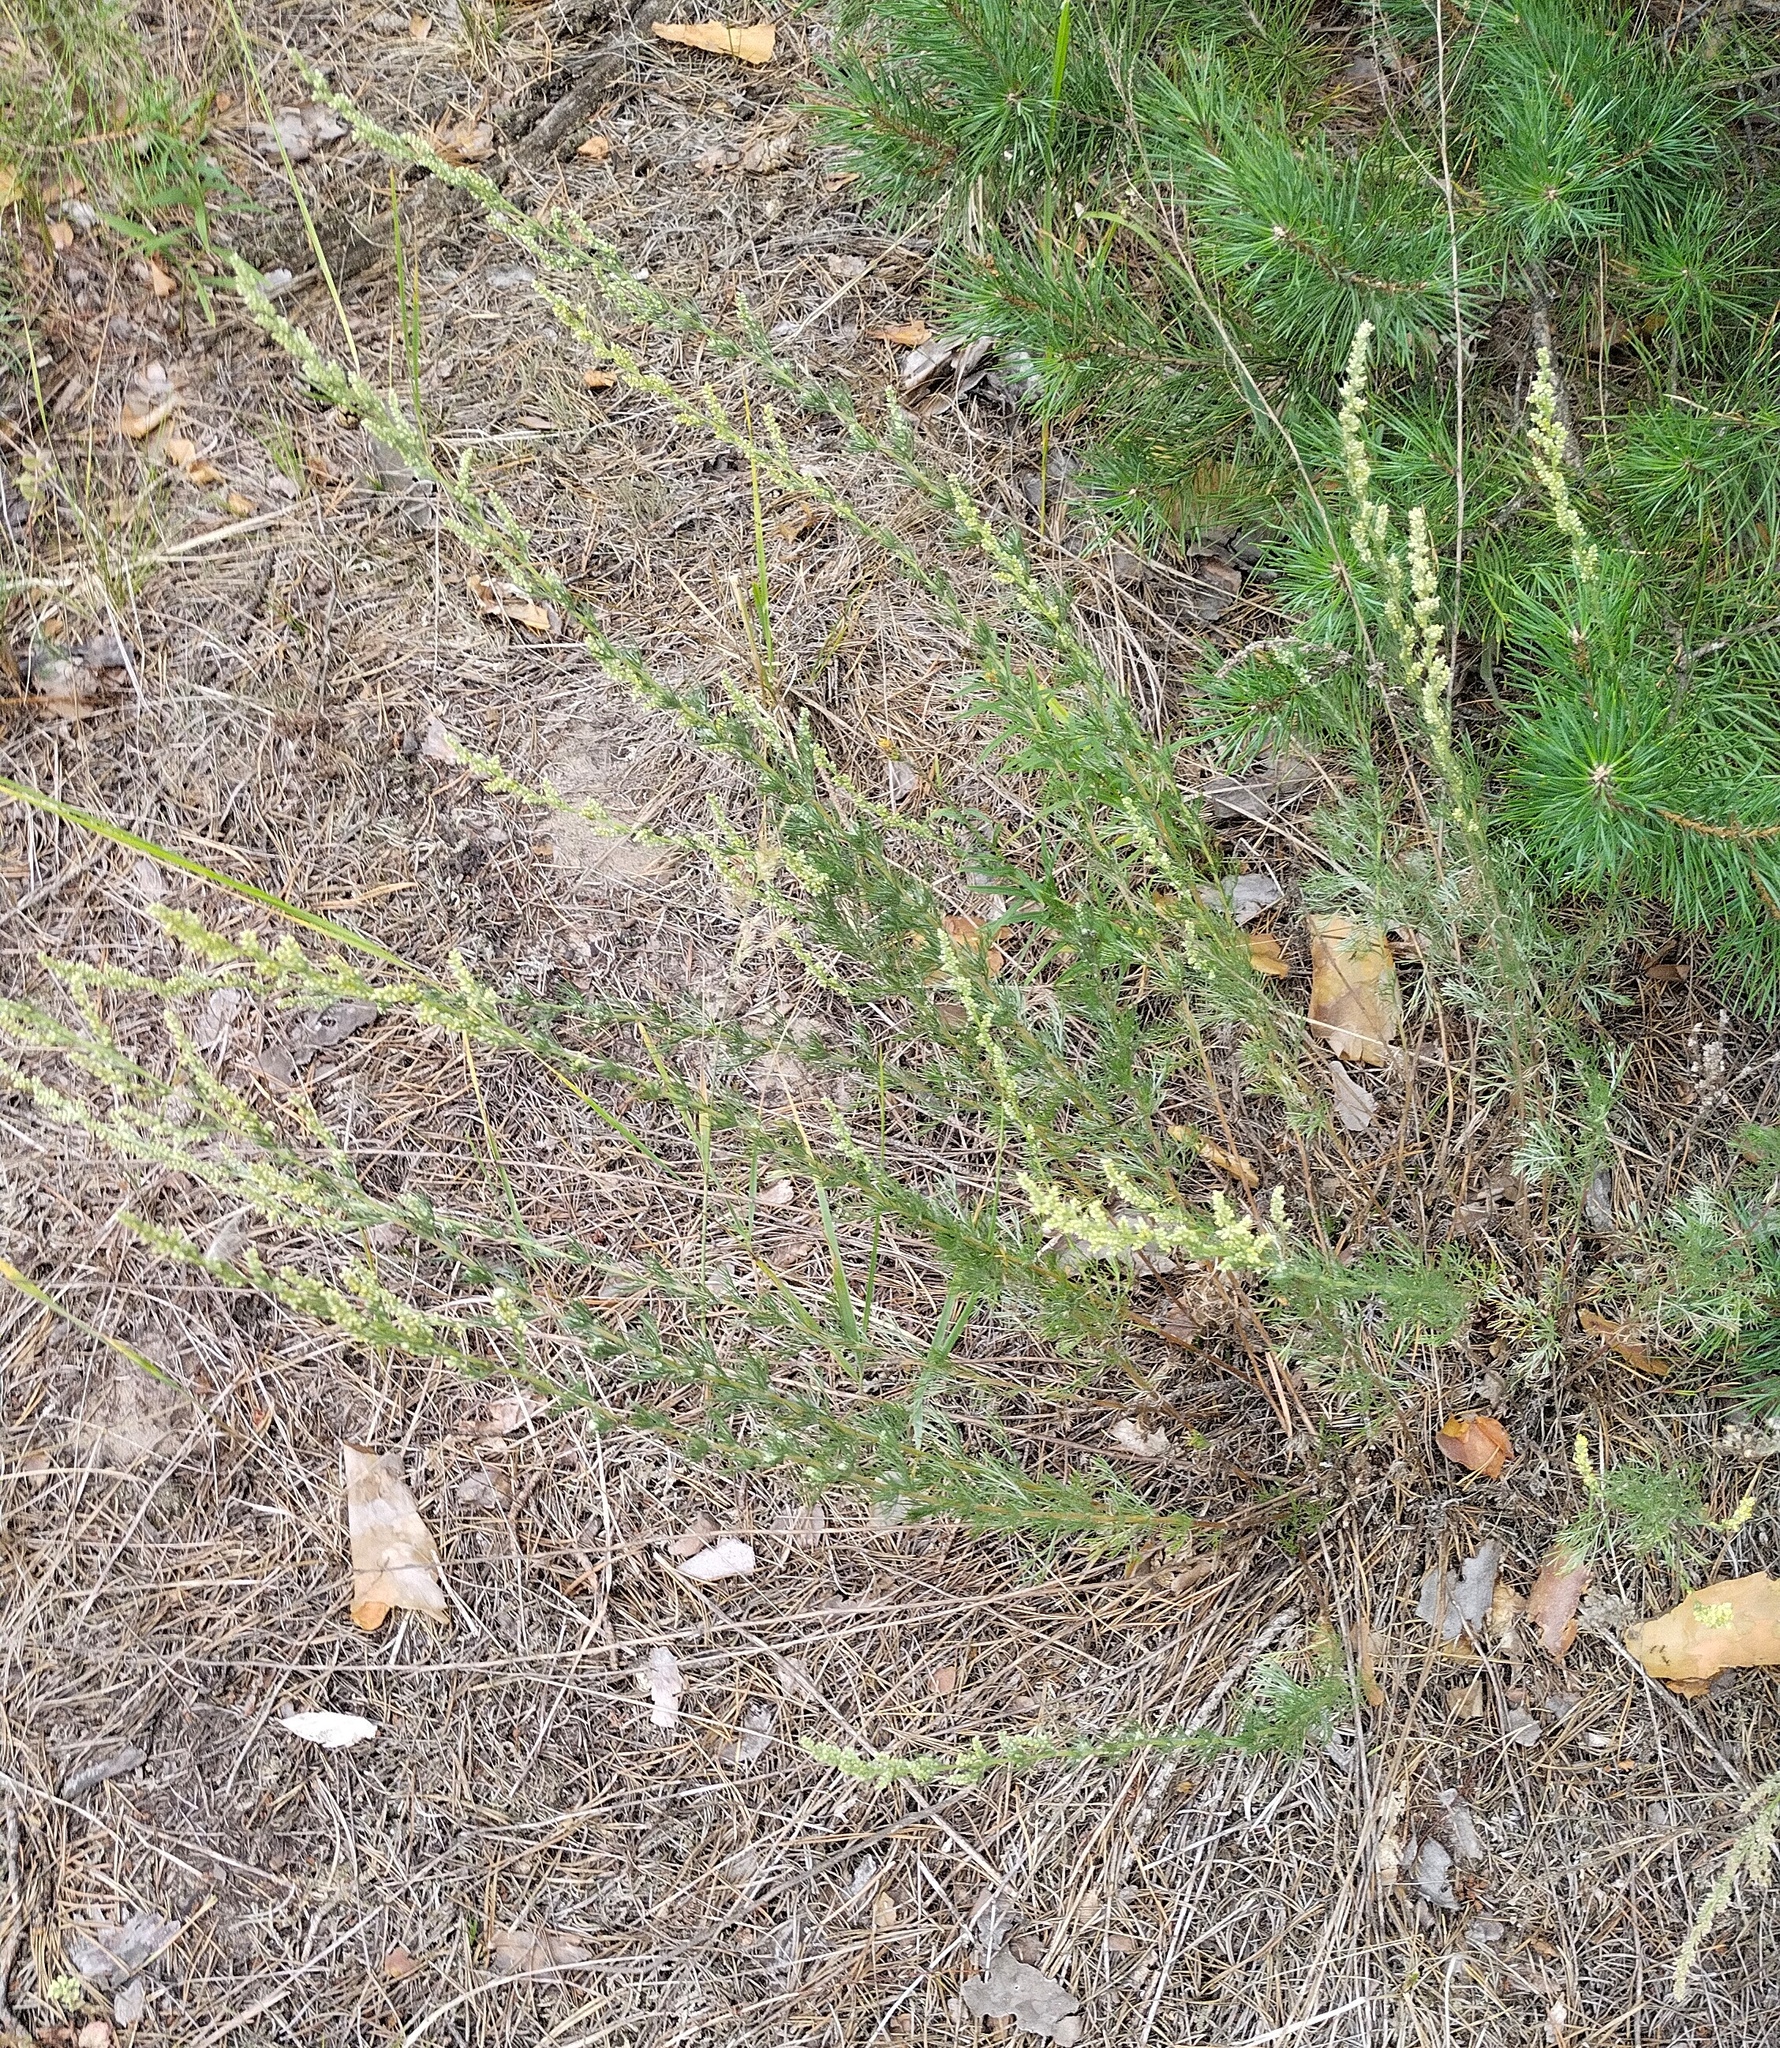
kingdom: Plantae
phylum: Tracheophyta
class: Magnoliopsida
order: Asterales
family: Asteraceae
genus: Artemisia
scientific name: Artemisia campestris
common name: Field wormwood
